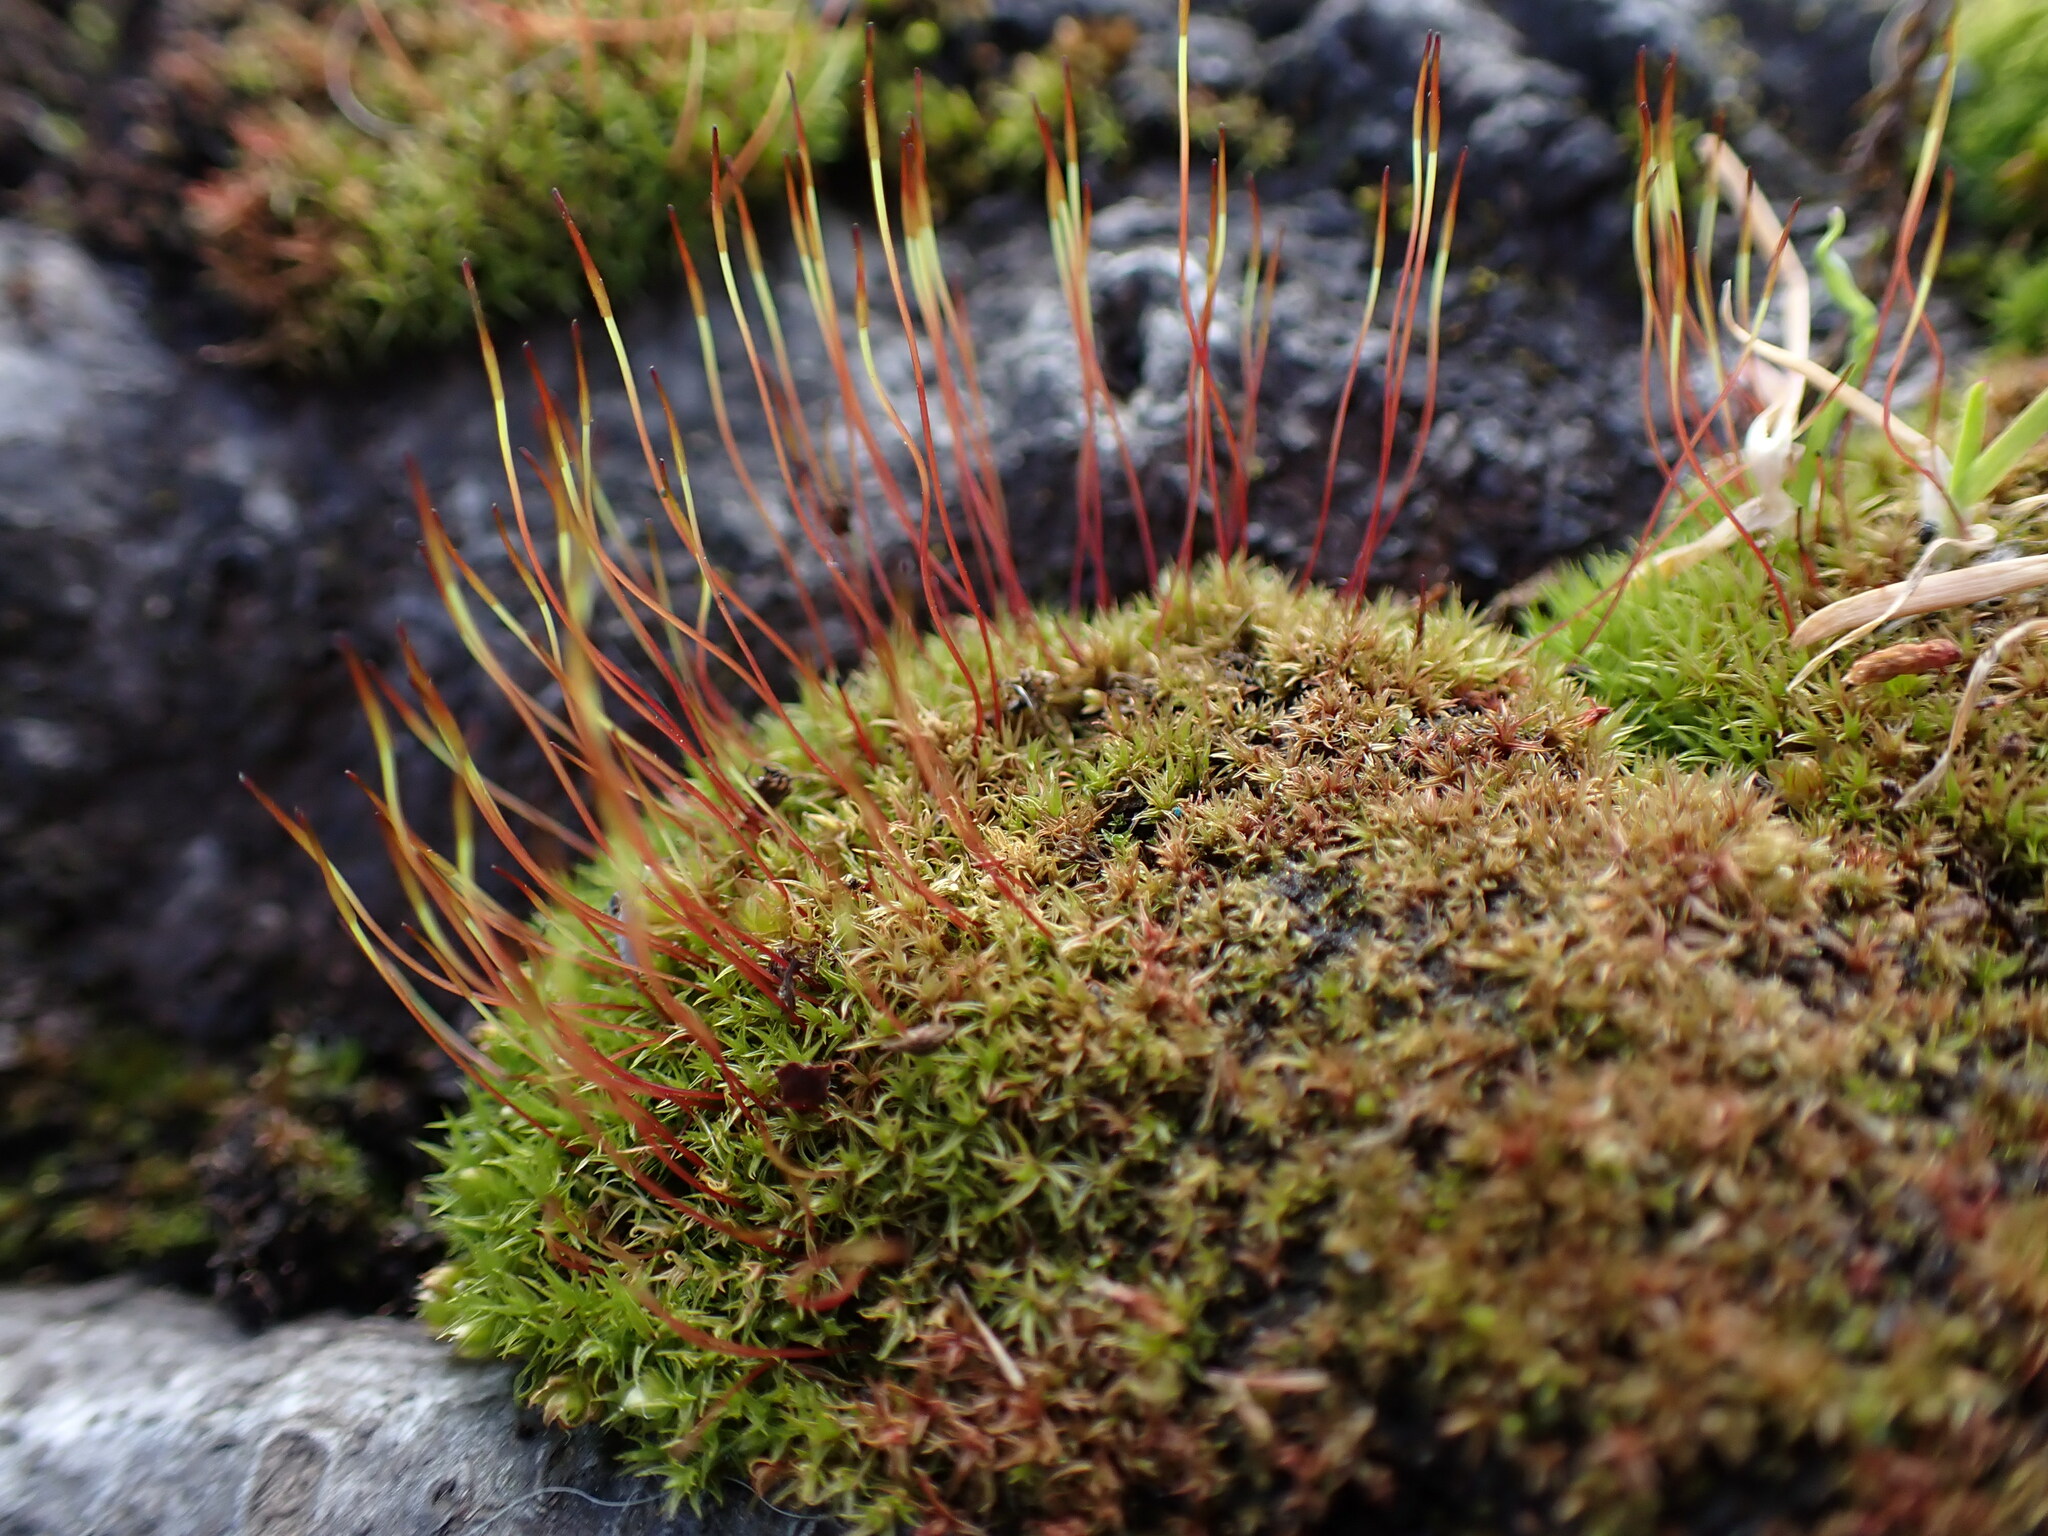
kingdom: Plantae
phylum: Bryophyta
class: Bryopsida
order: Dicranales
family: Ditrichaceae
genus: Ceratodon
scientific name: Ceratodon purpureus
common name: Redshank
